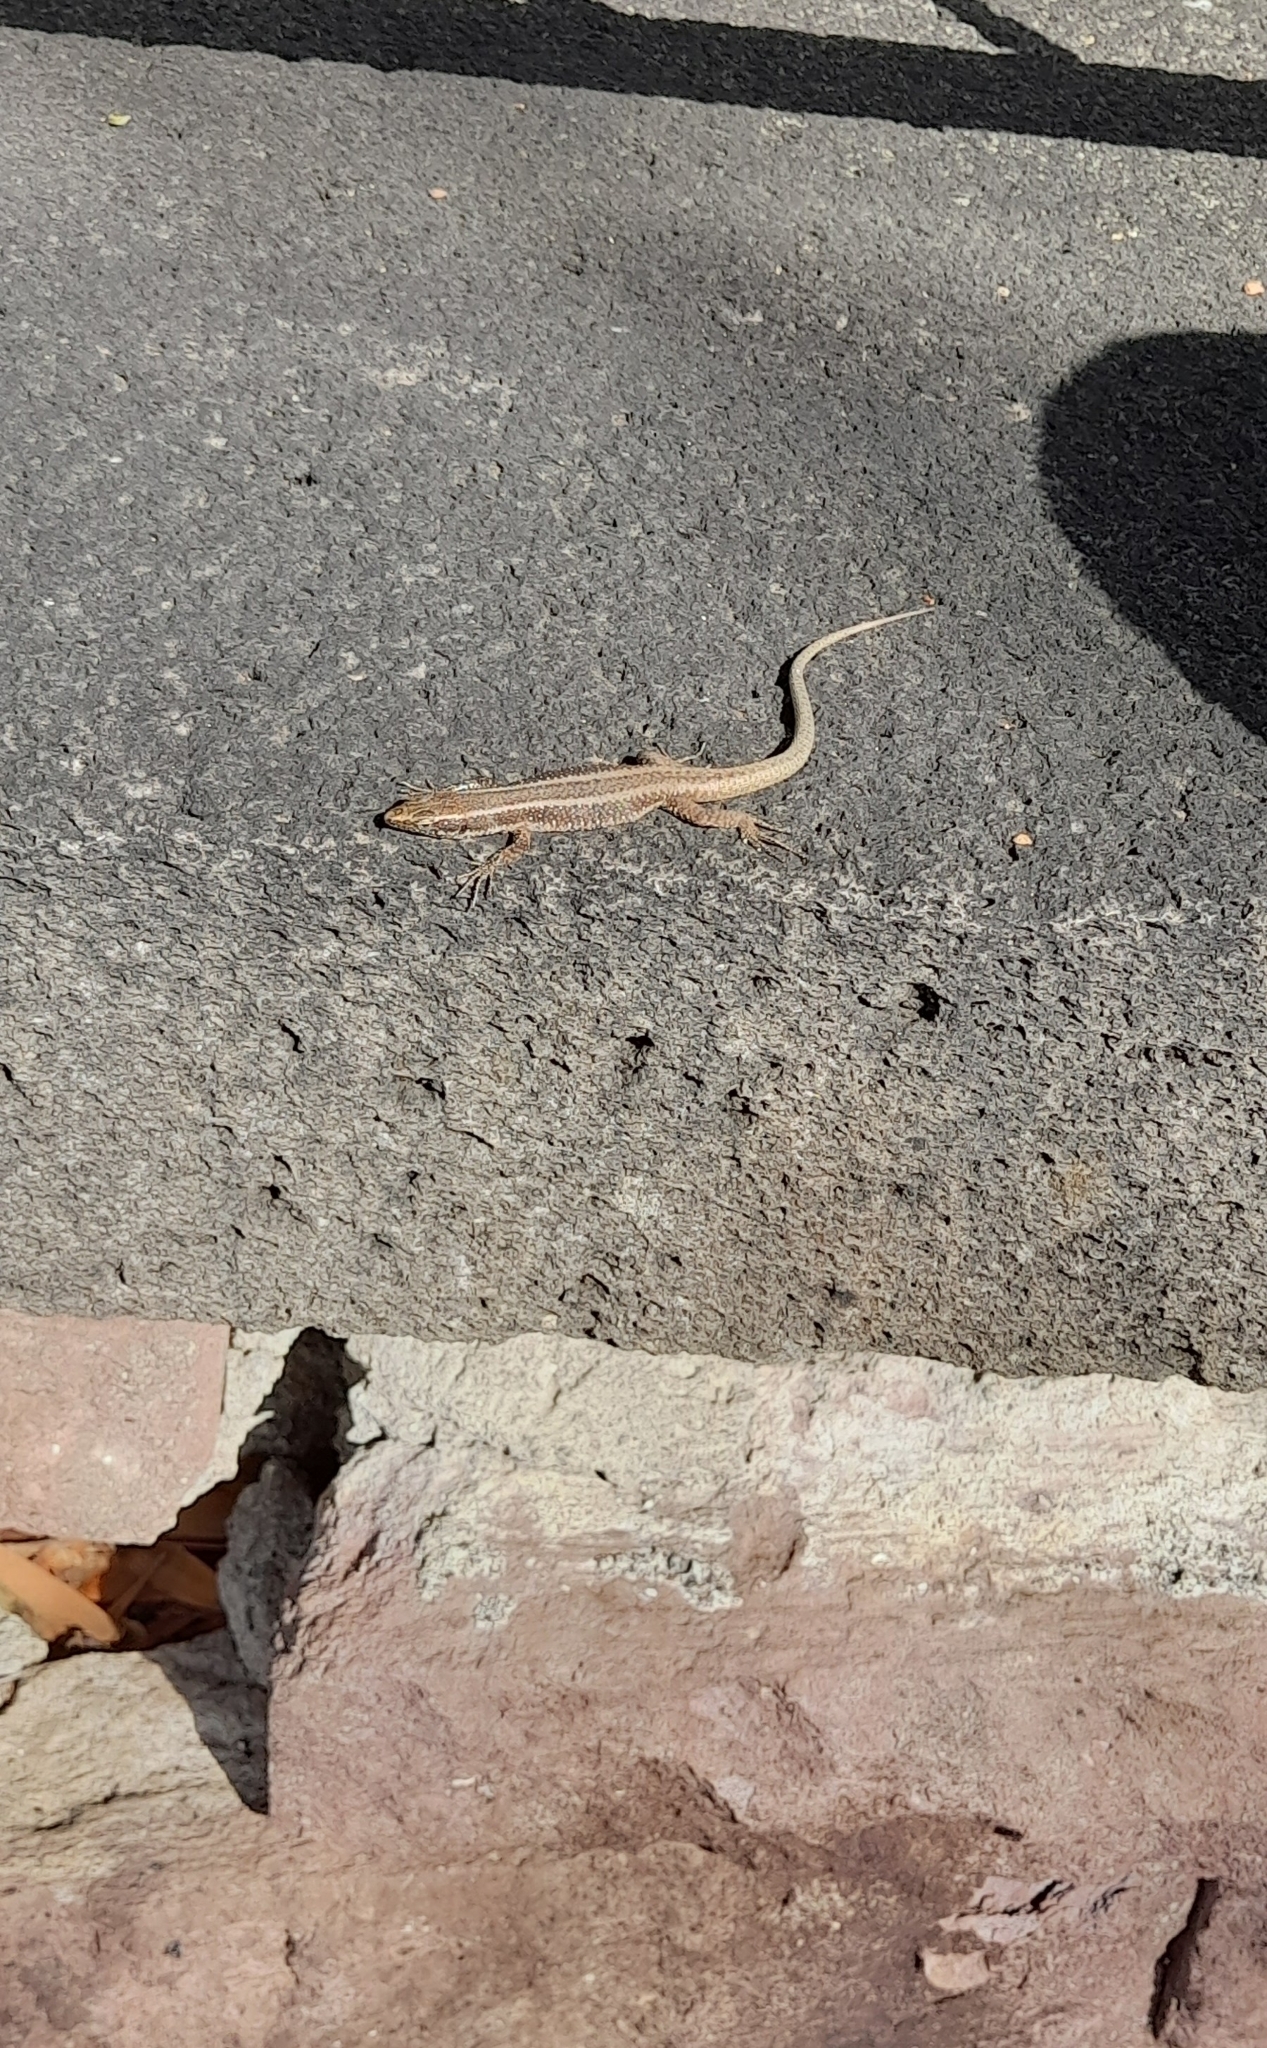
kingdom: Animalia
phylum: Chordata
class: Squamata
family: Lacertidae
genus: Teira
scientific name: Teira dugesii
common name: Madeira lizard
